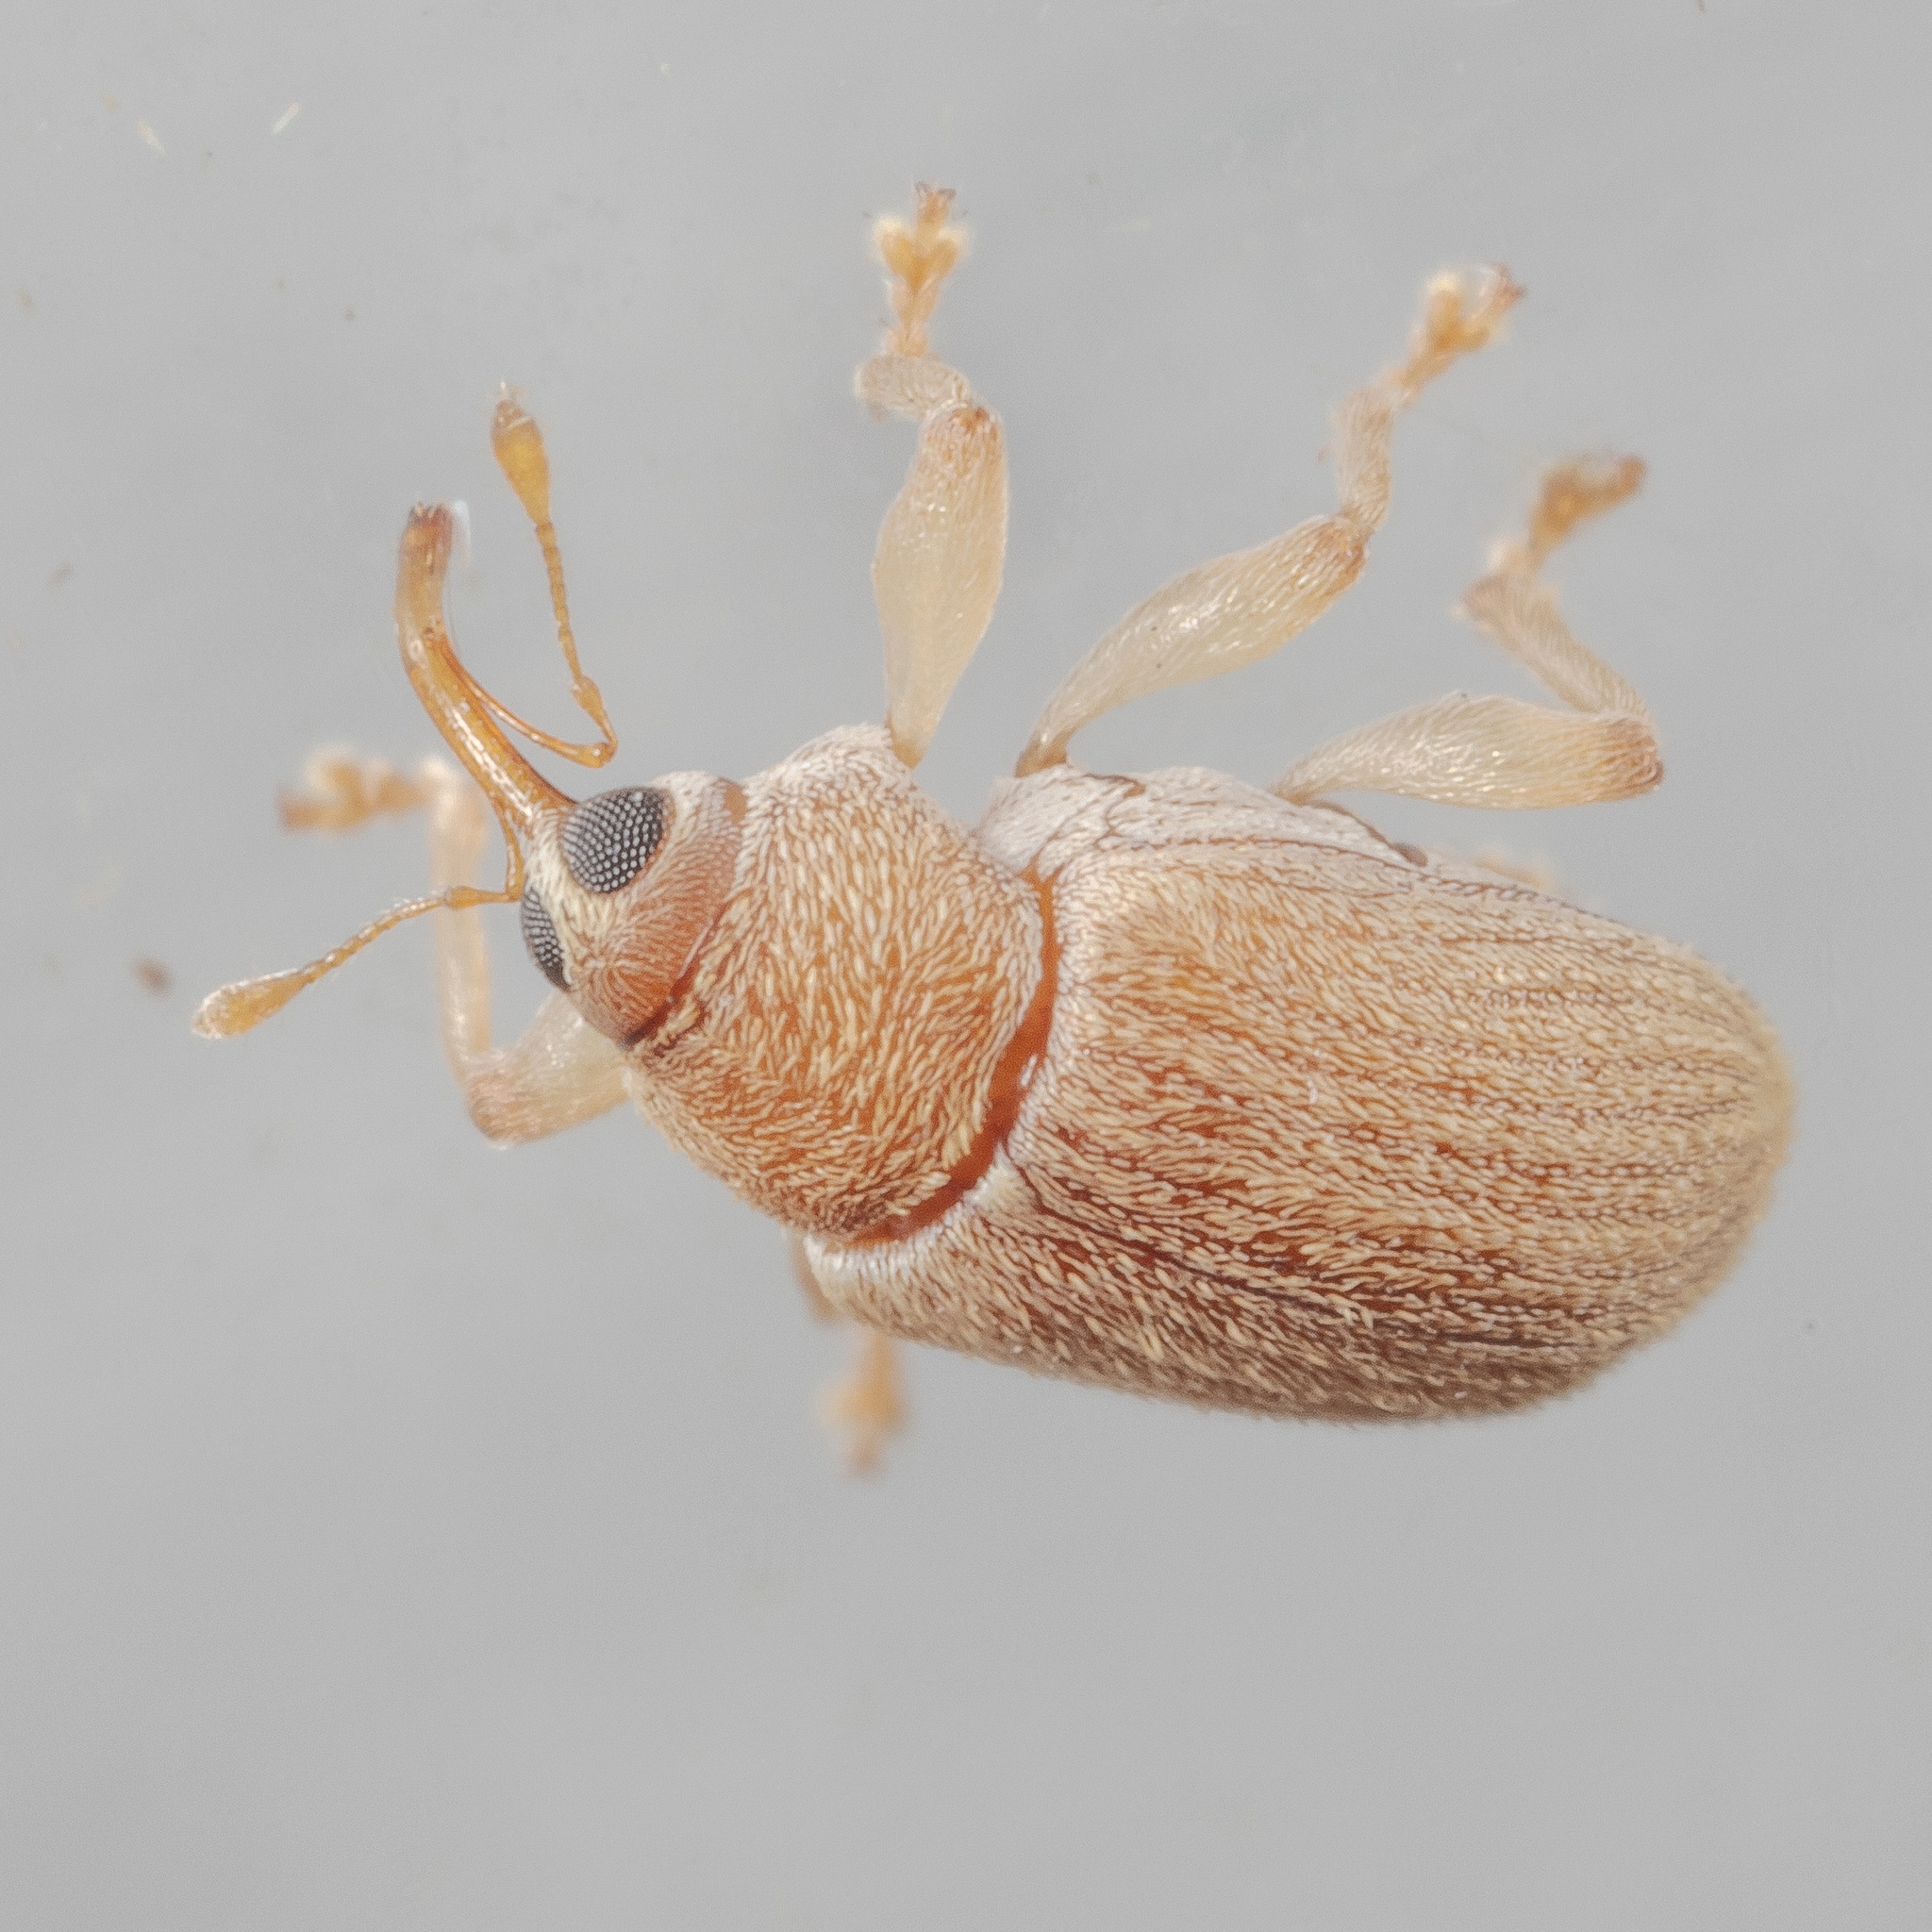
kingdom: Animalia
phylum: Arthropoda
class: Insecta
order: Coleoptera
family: Curculionidae
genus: Lignyodes
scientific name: Lignyodes helvolus
